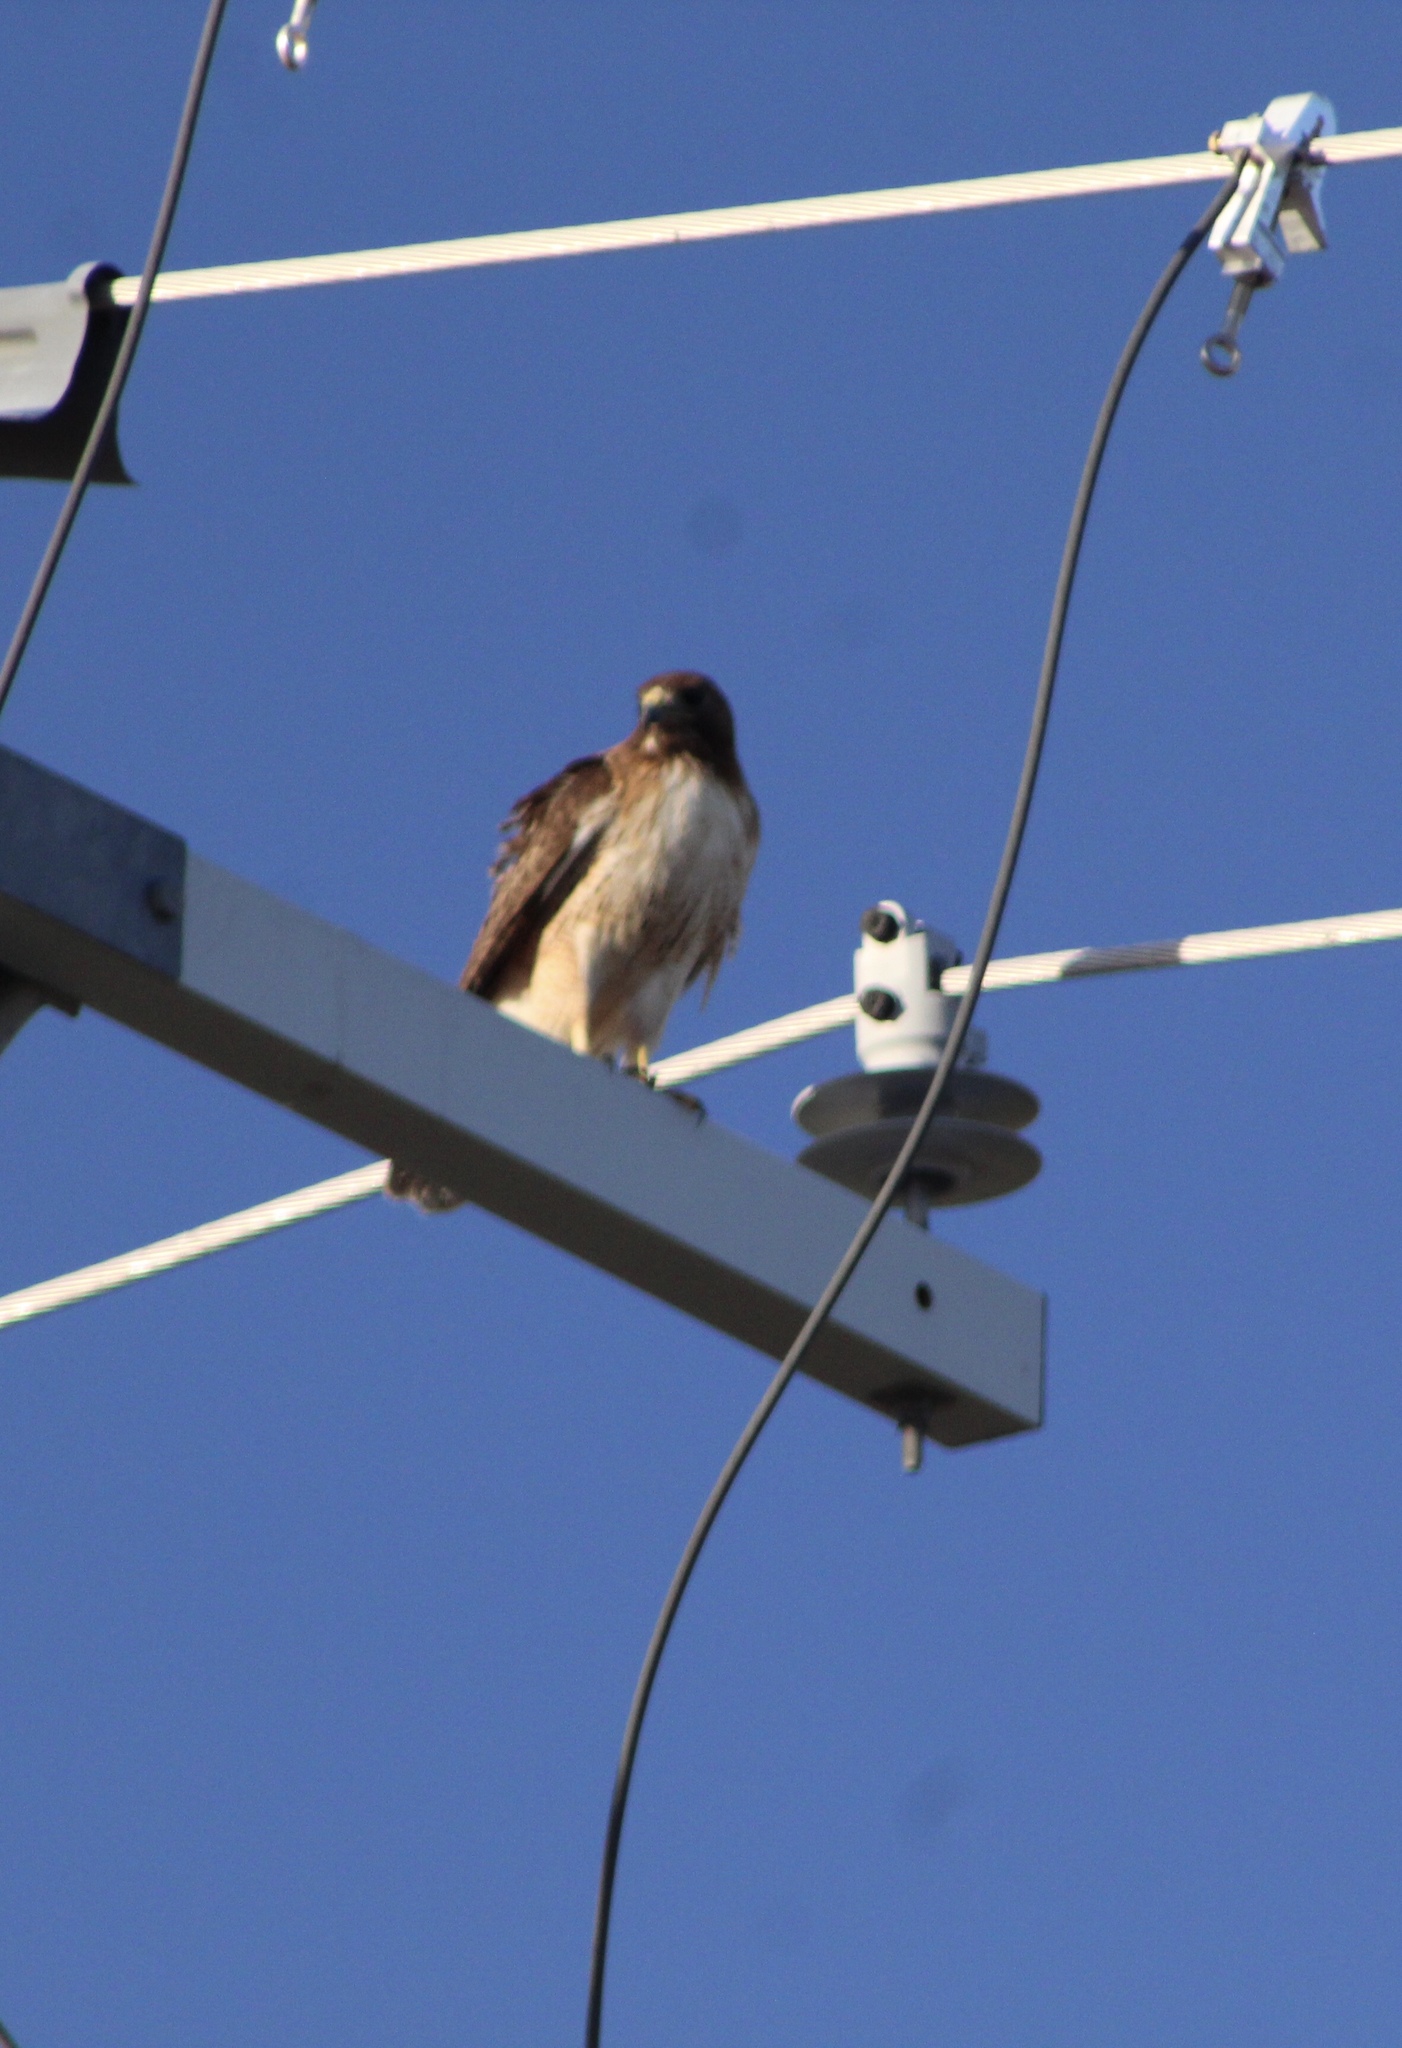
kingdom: Animalia
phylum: Chordata
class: Aves
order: Accipitriformes
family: Accipitridae
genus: Buteo
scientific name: Buteo jamaicensis
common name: Red-tailed hawk
